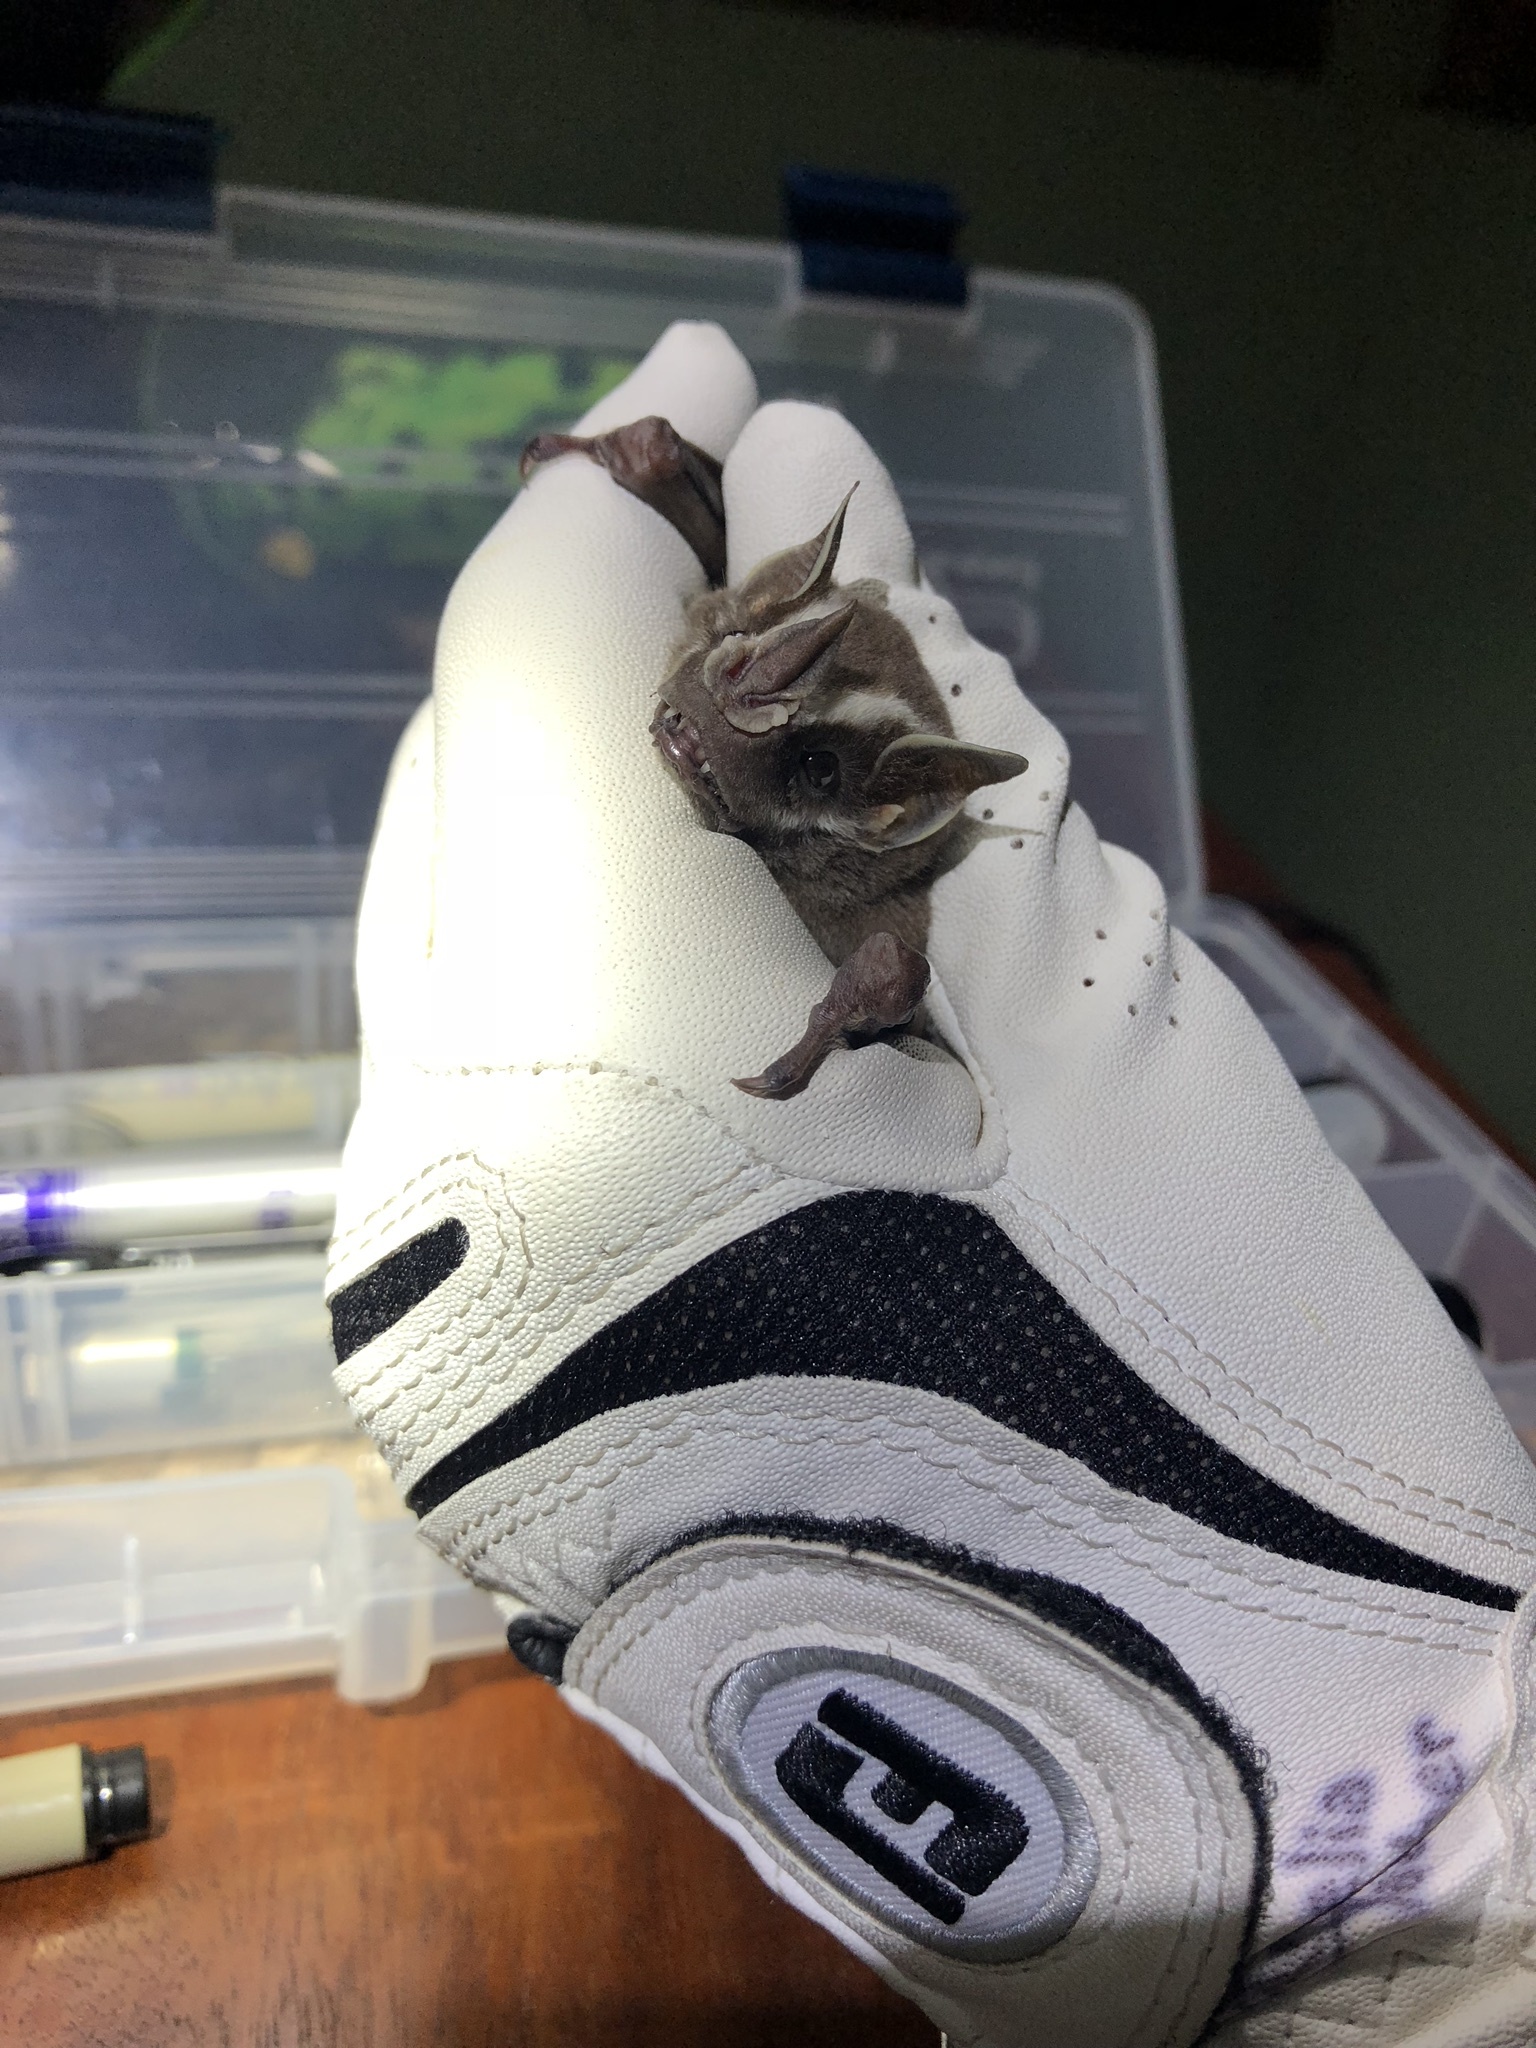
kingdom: Animalia
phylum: Chordata
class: Mammalia
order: Chiroptera
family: Phyllostomidae
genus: Uroderma
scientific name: Uroderma bilobatum
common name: Common tent-making bat
